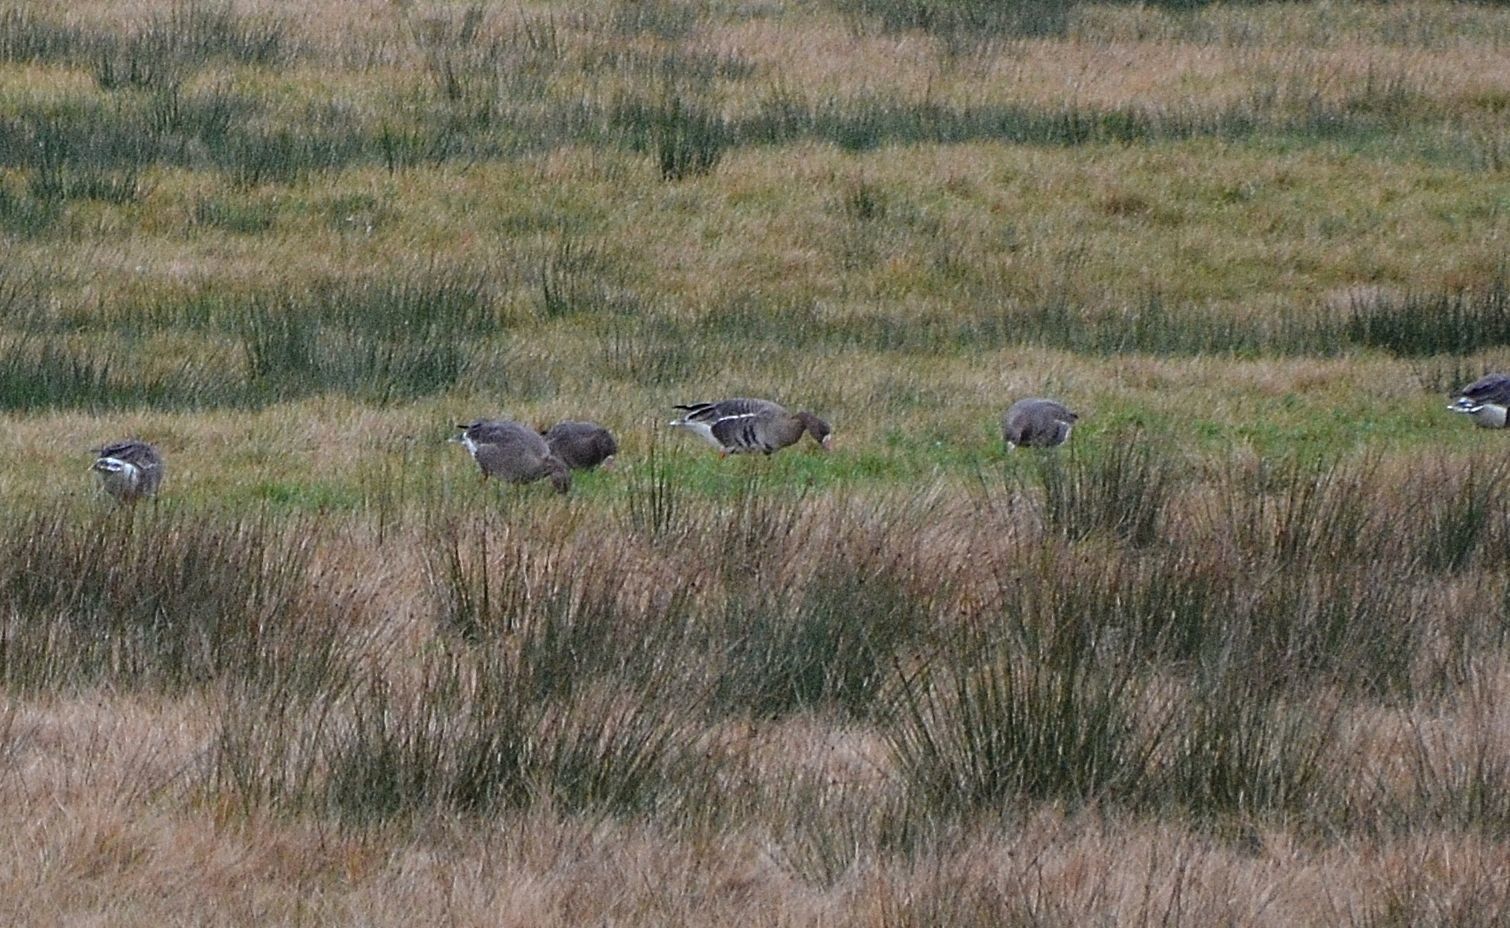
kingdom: Animalia
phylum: Chordata
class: Aves
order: Anseriformes
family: Anatidae
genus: Anser
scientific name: Anser albifrons
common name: Greater white-fronted goose
